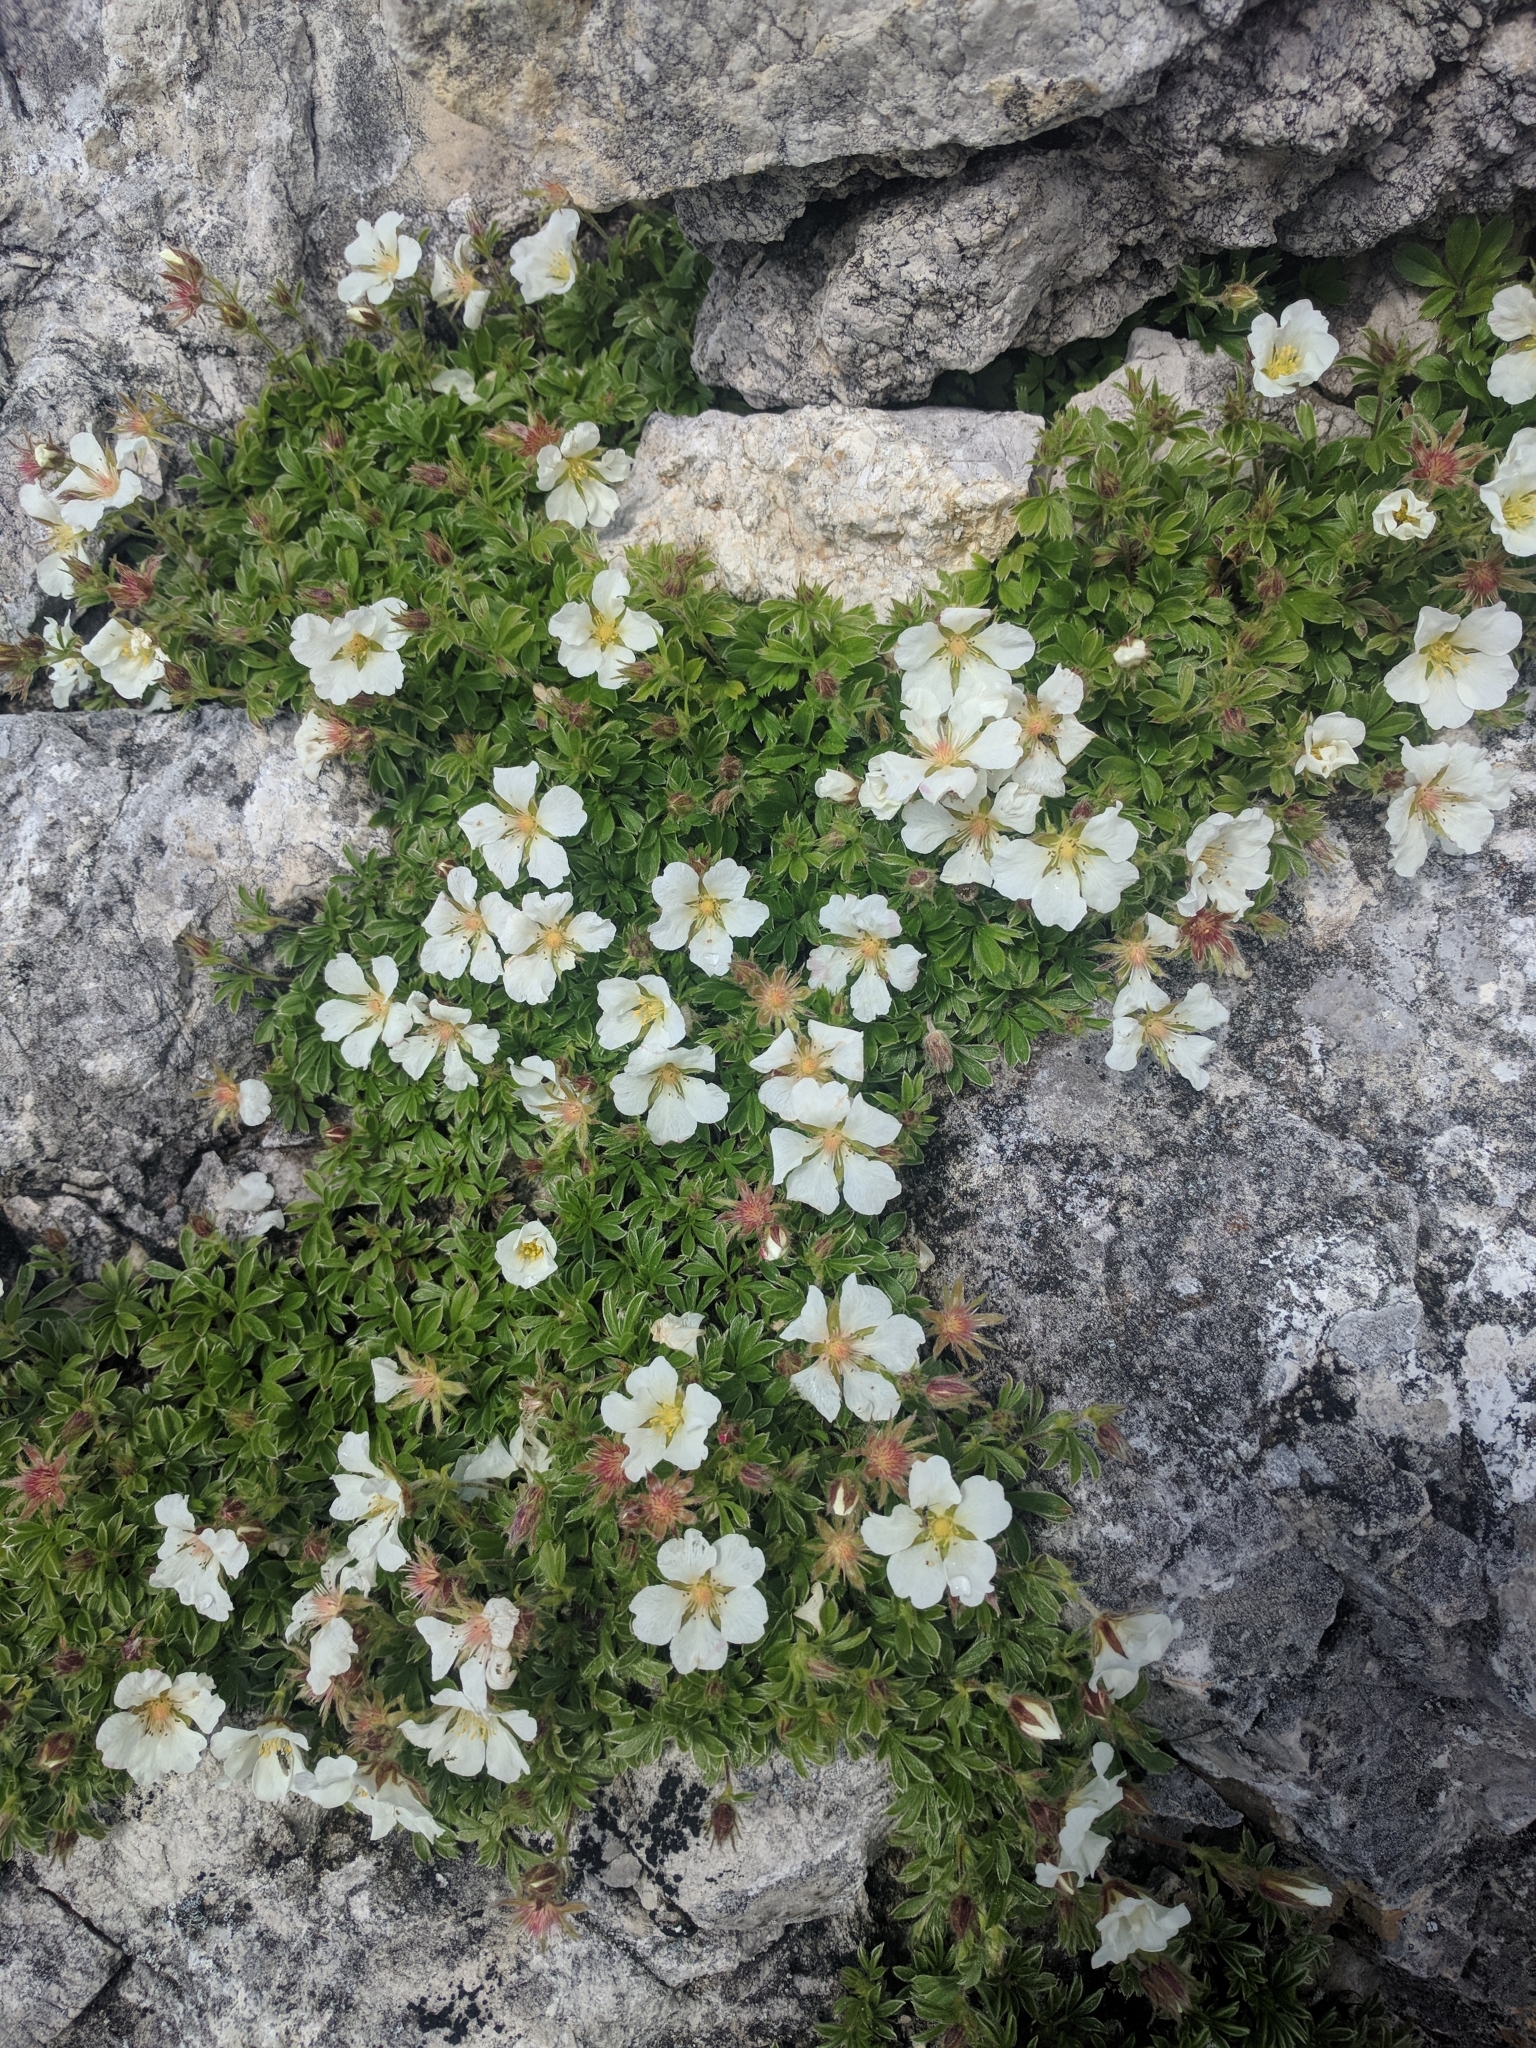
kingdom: Plantae
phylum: Tracheophyta
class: Magnoliopsida
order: Rosales
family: Rosaceae
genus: Potentilla
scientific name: Potentilla clusiana
